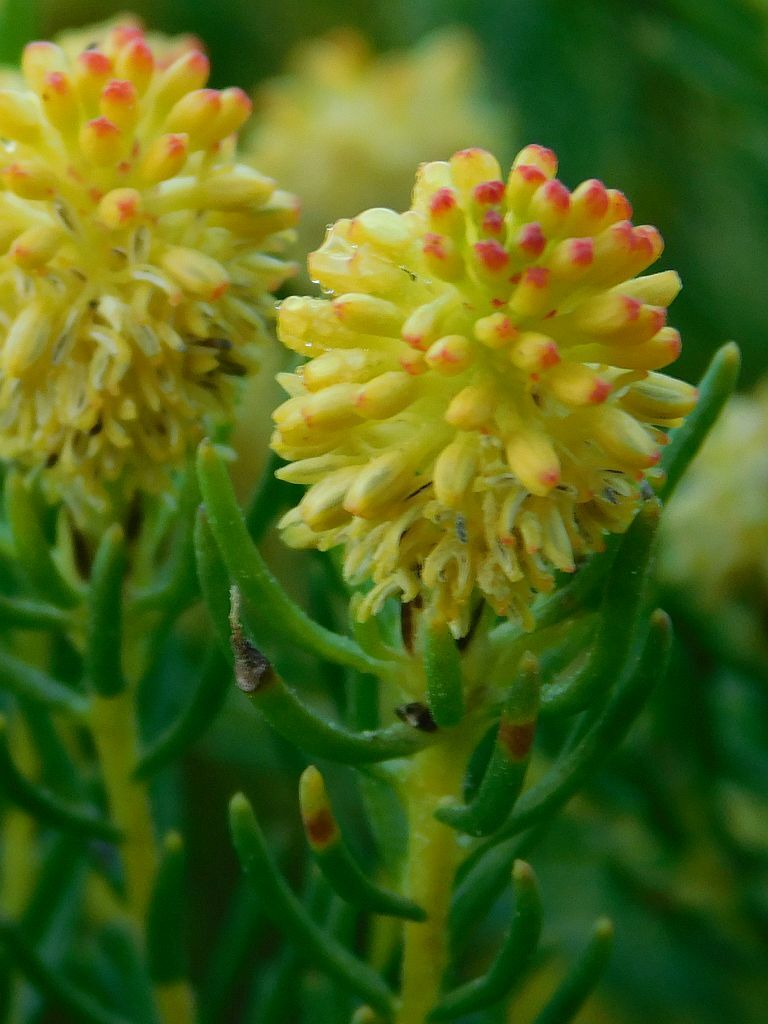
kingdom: Plantae
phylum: Tracheophyta
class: Magnoliopsida
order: Proteales
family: Proteaceae
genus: Leucadendron
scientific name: Leucadendron teretifolium
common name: Needle-leaf conebush
